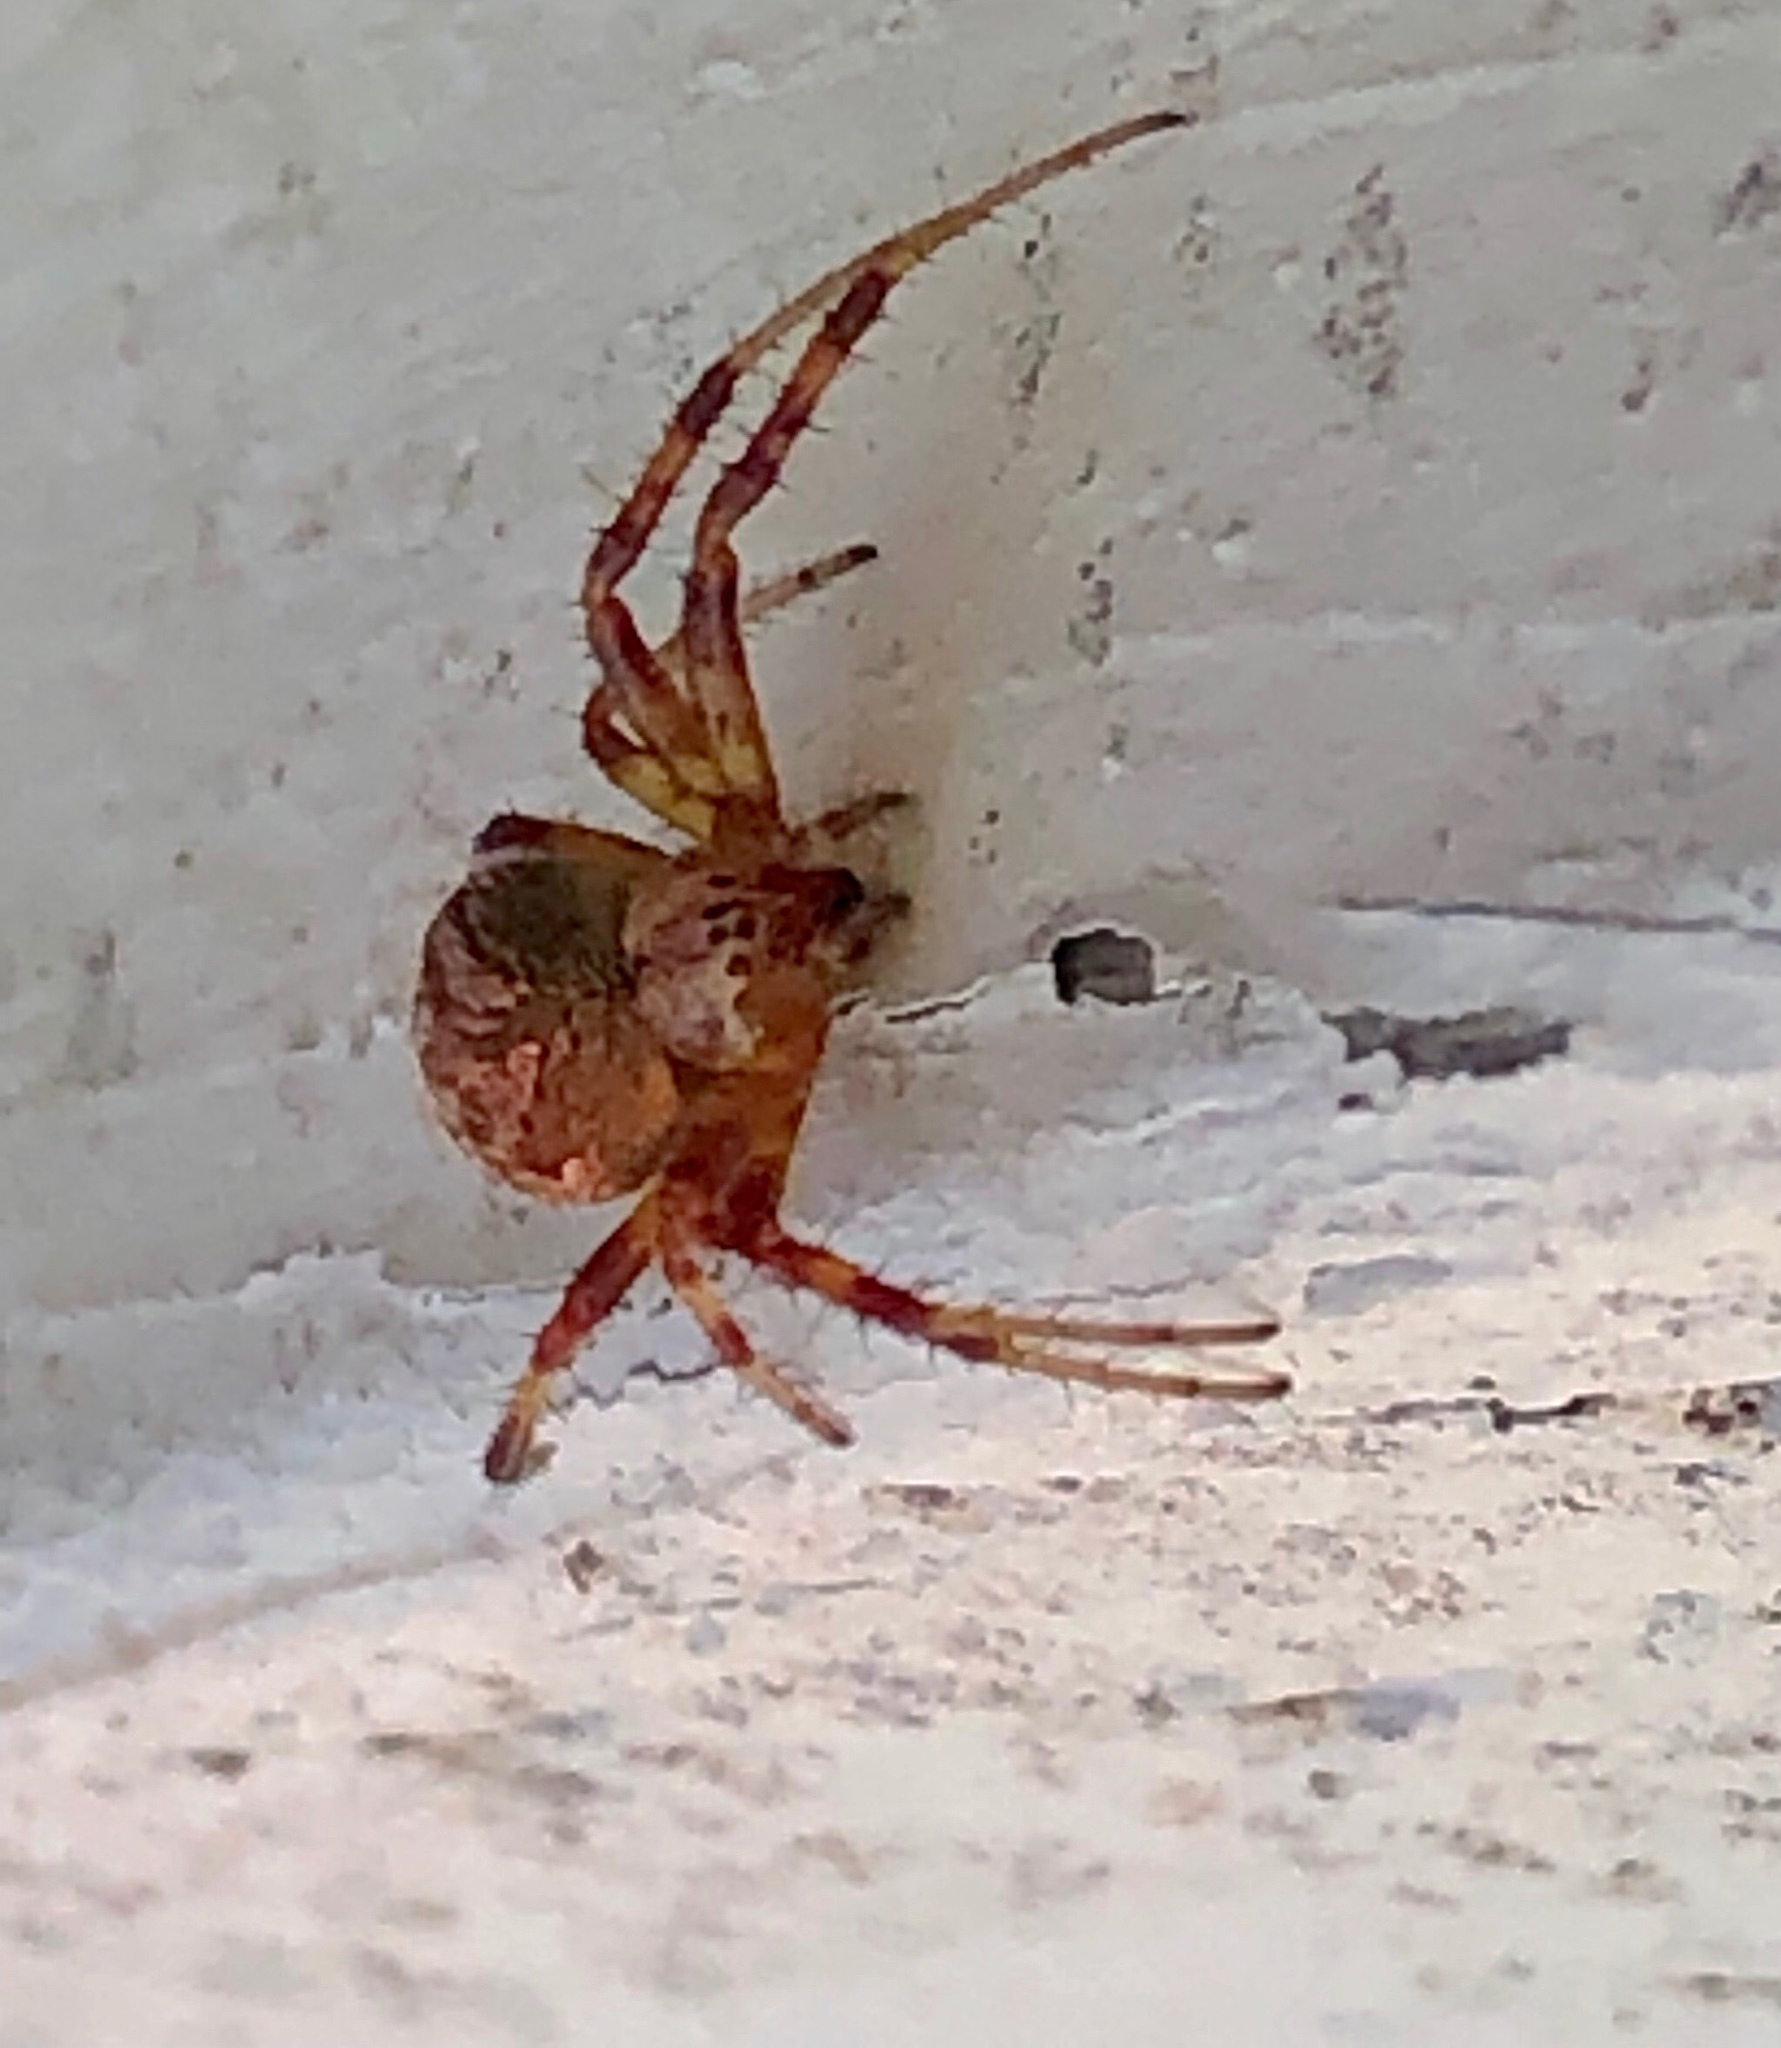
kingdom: Animalia
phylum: Arthropoda
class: Arachnida
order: Araneae
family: Araneidae
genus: Neoscona
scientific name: Neoscona arabesca
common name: Orb weavers
